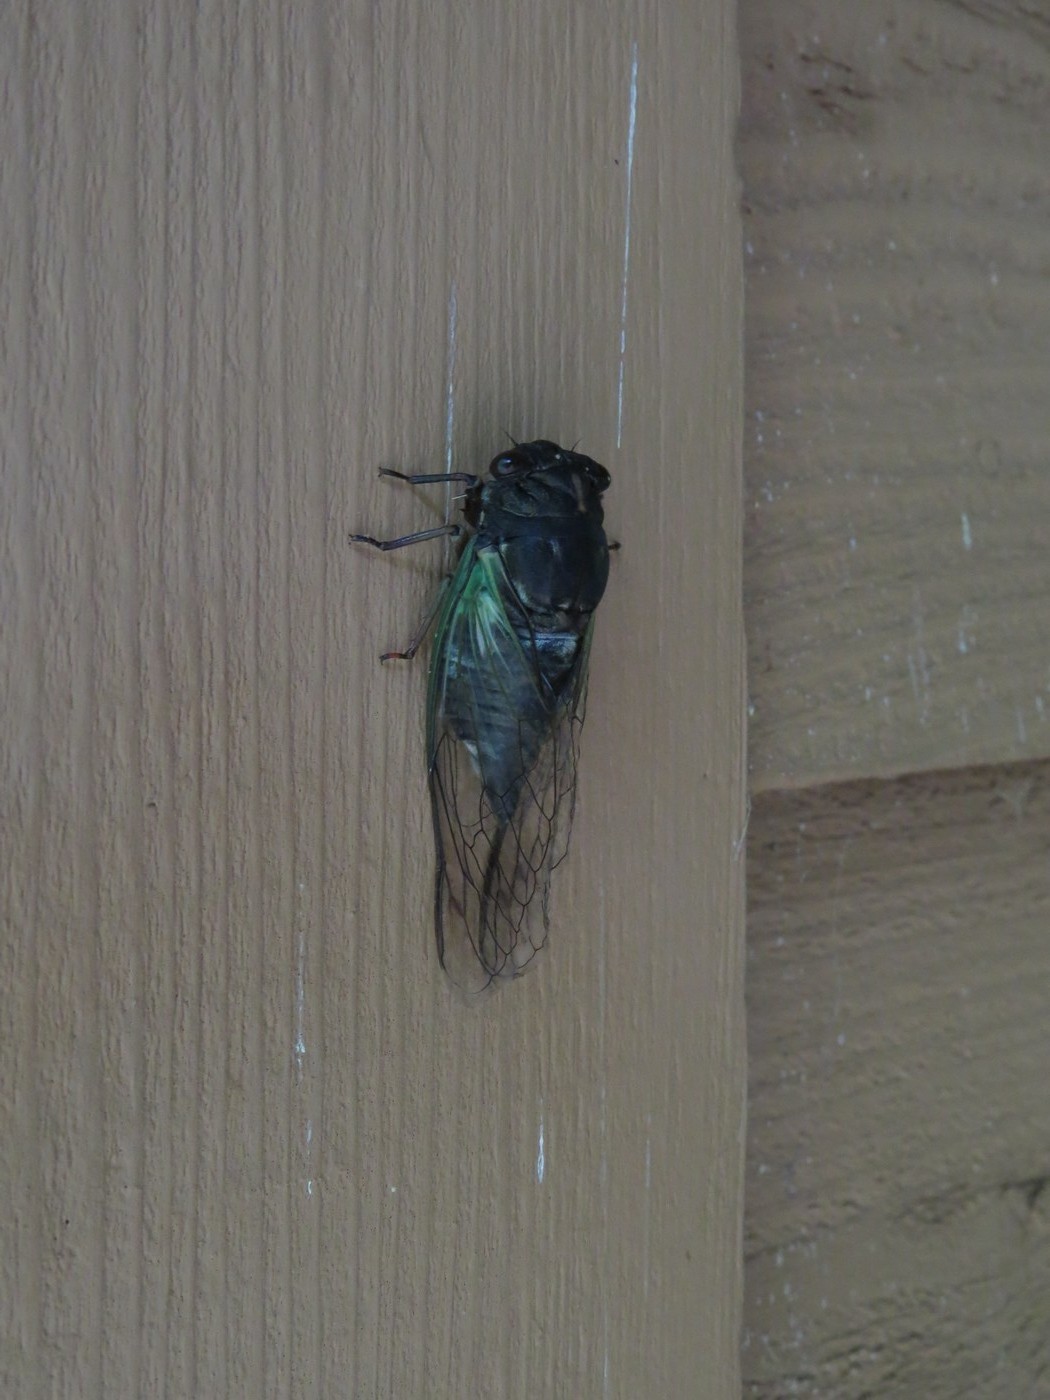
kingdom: Animalia
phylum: Arthropoda
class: Insecta
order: Hemiptera
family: Cicadidae
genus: Neotibicen
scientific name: Neotibicen lyricen
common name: Lyric cicada
